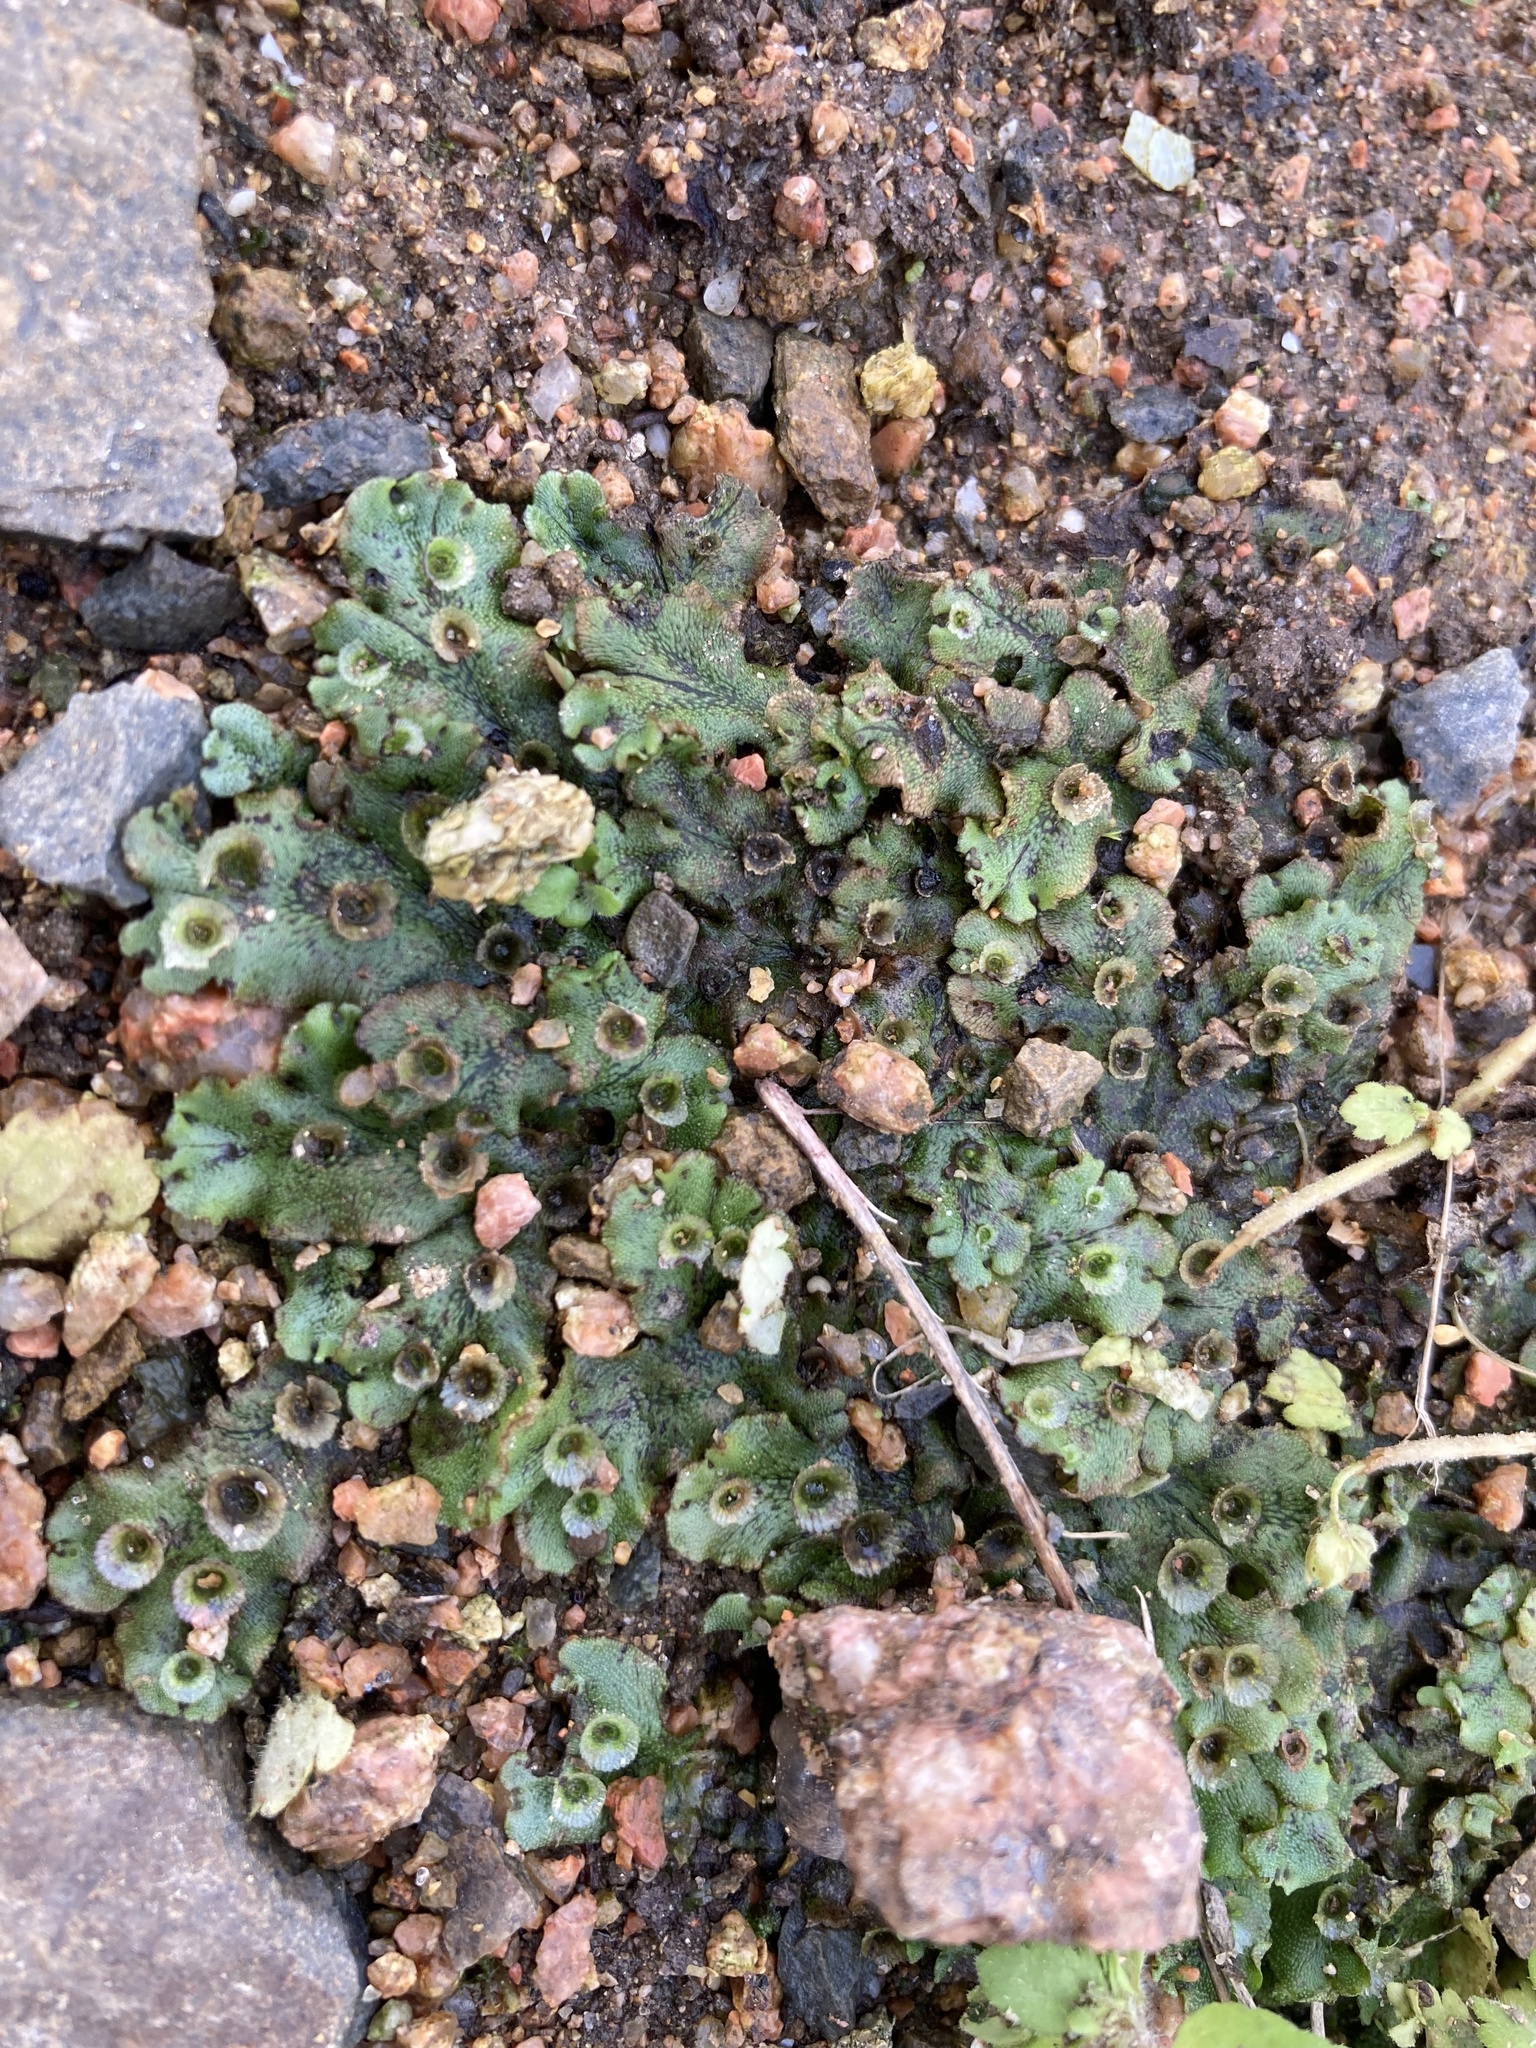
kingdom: Plantae
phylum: Marchantiophyta
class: Marchantiopsida
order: Marchantiales
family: Marchantiaceae
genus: Marchantia
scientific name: Marchantia polymorpha
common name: Common liverwort
